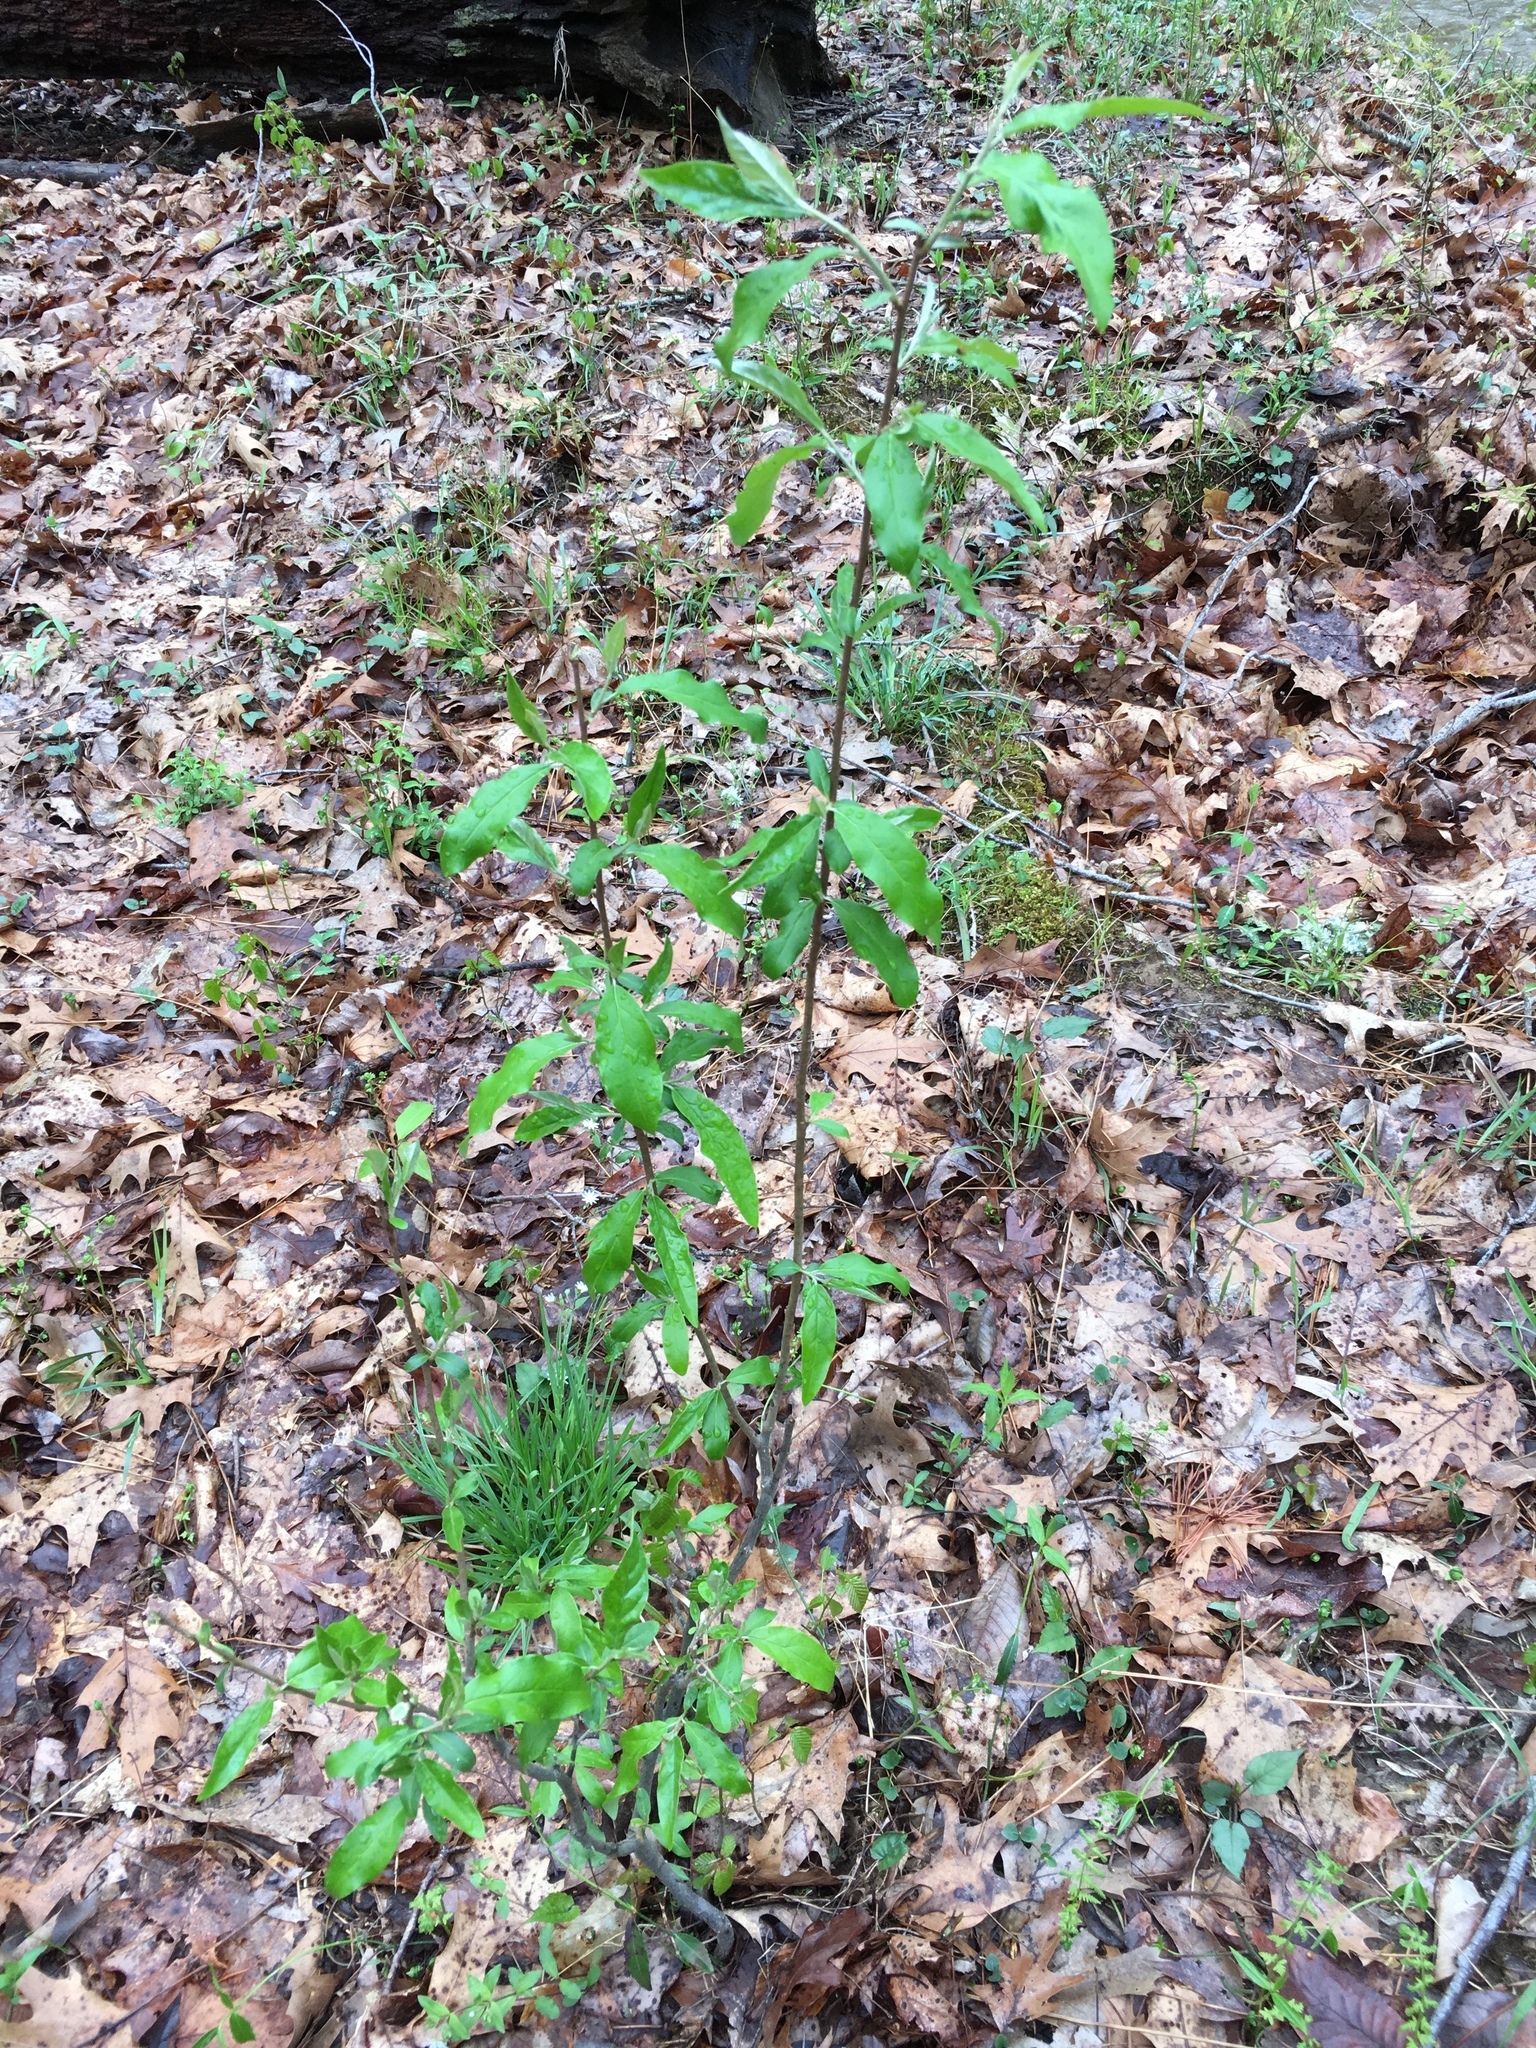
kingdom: Plantae
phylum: Tracheophyta
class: Magnoliopsida
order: Rosales
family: Elaeagnaceae
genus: Elaeagnus
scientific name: Elaeagnus umbellata
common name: Autumn olive
